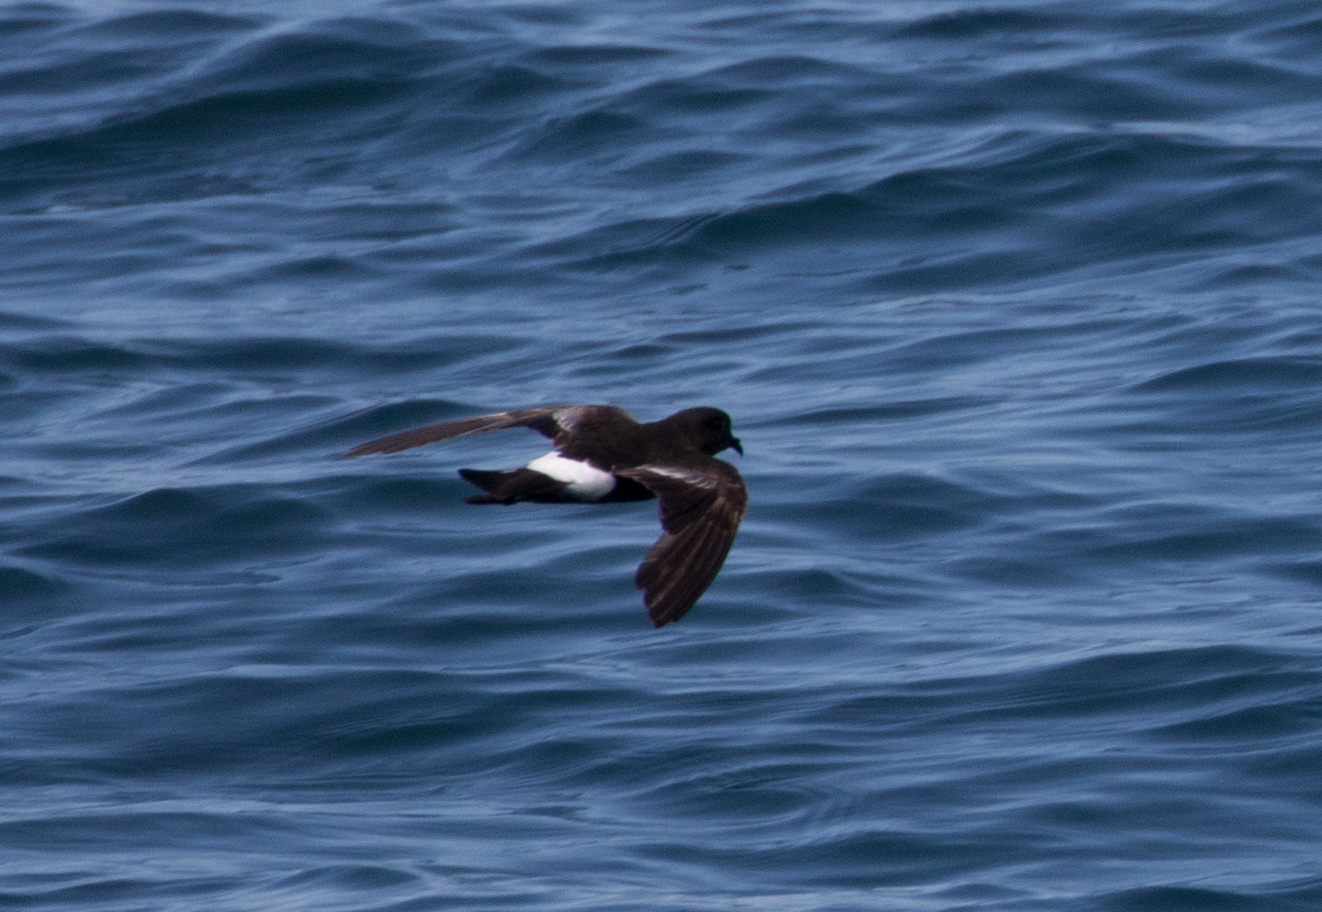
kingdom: Animalia
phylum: Chordata
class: Aves
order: Procellariiformes
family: Hydrobatidae
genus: Oceanites
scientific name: Oceanites oceanicus
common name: Wilson's storm petrel
